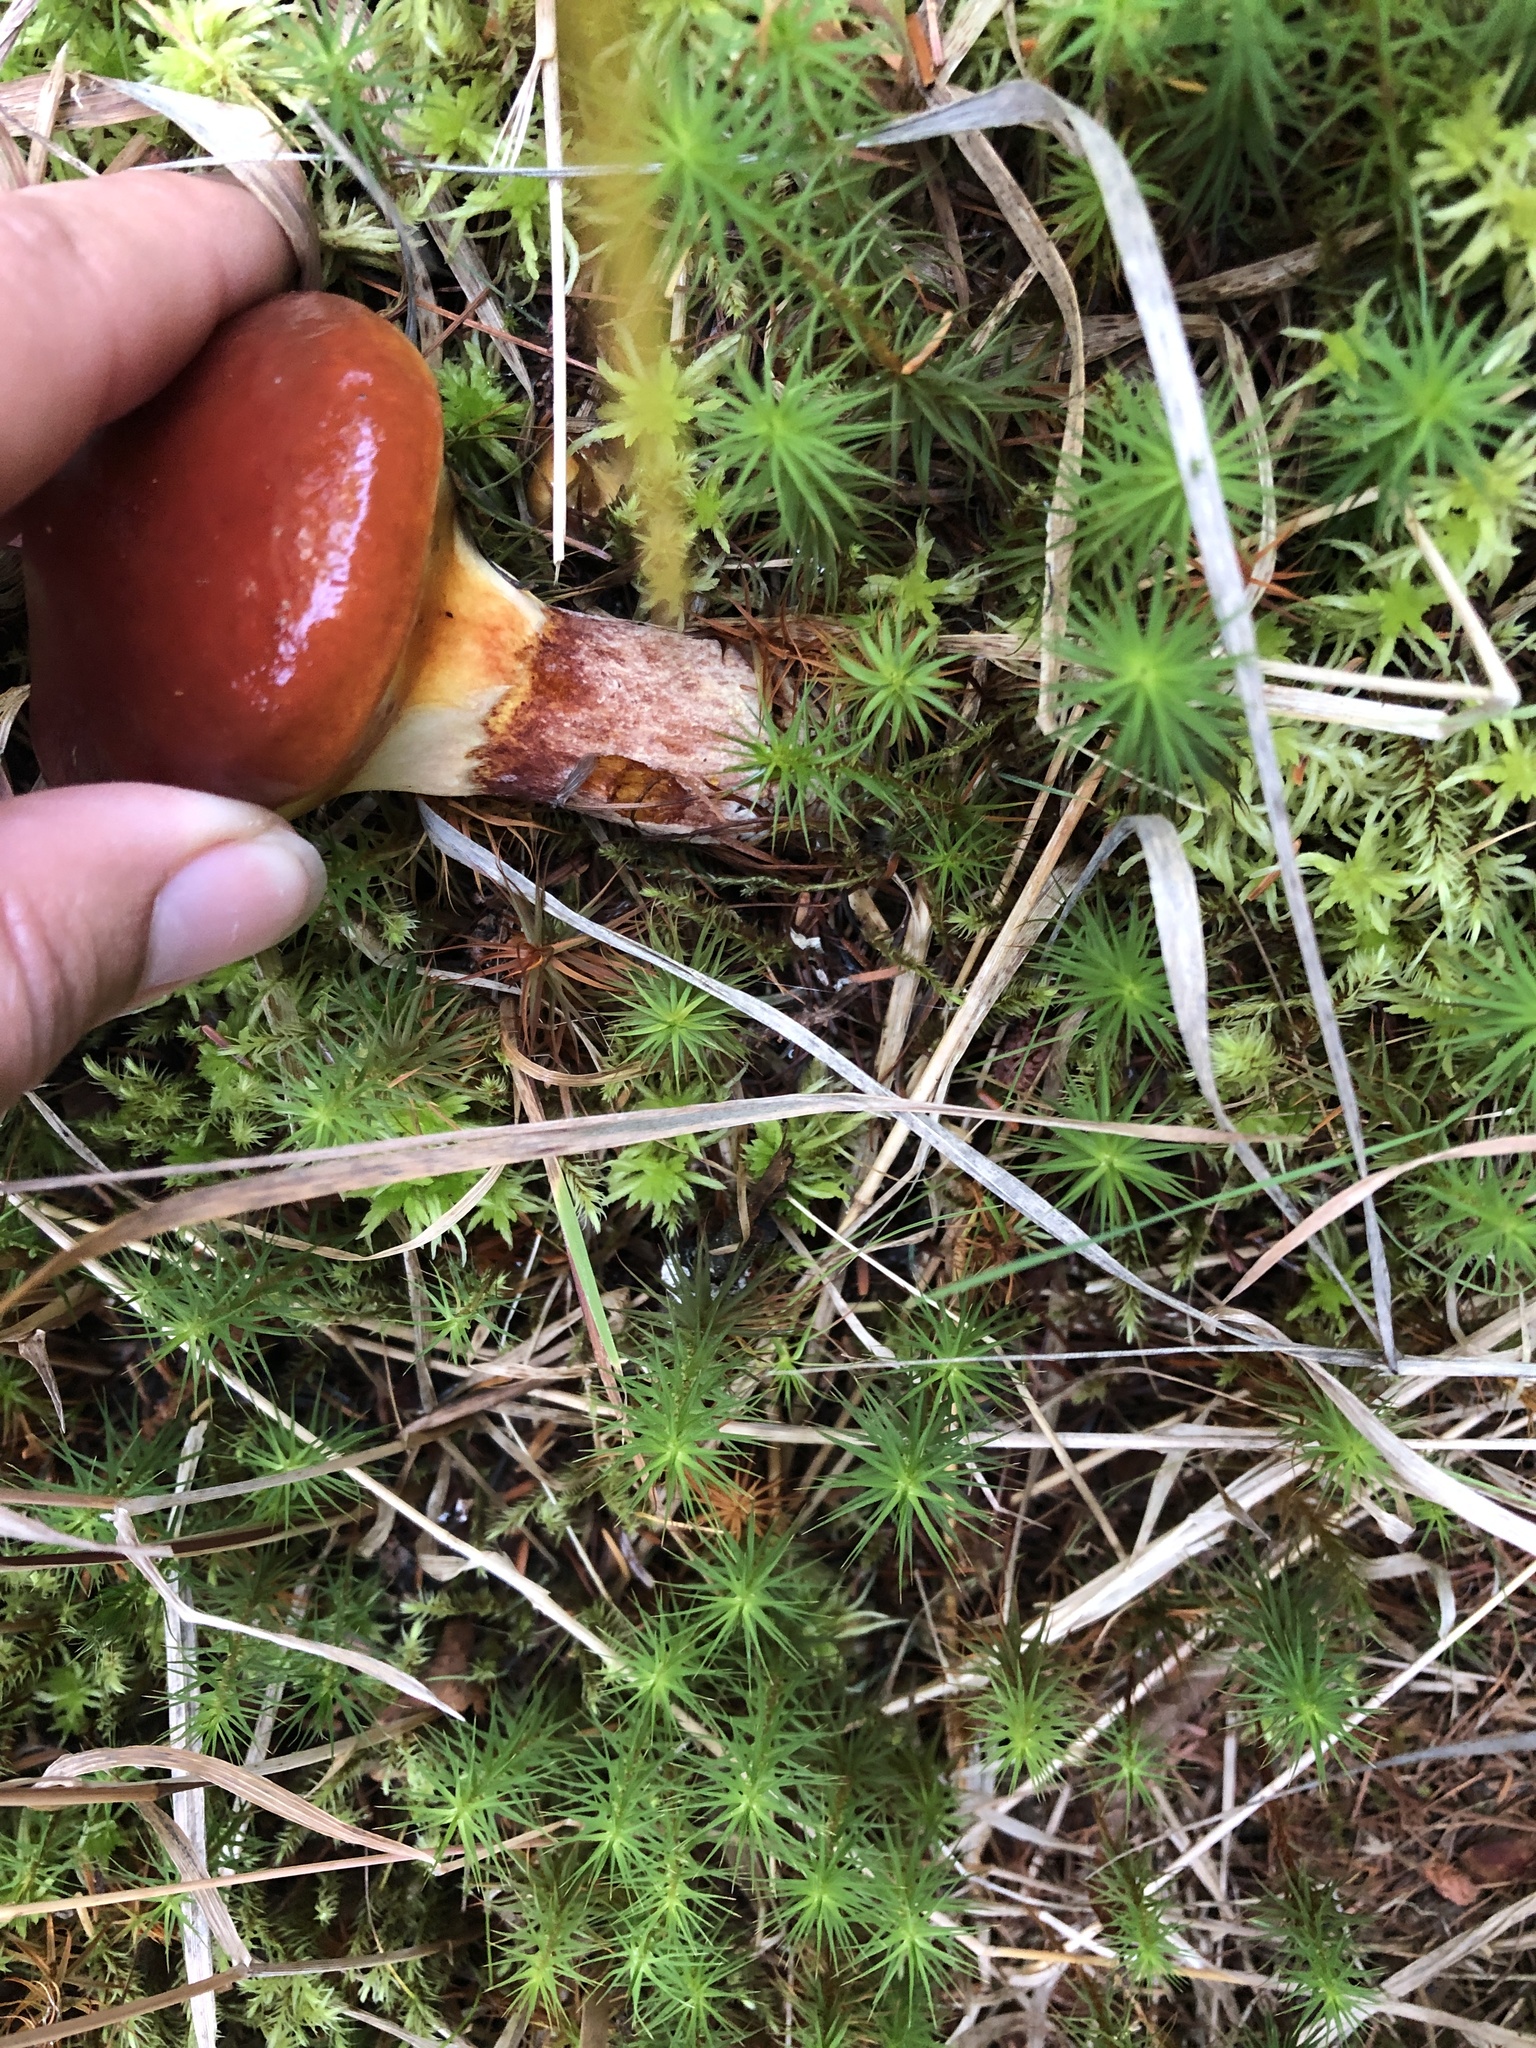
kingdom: Fungi
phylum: Basidiomycota
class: Agaricomycetes
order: Boletales
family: Suillaceae
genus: Suillus
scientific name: Suillus grevillei
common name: Larch bolete
